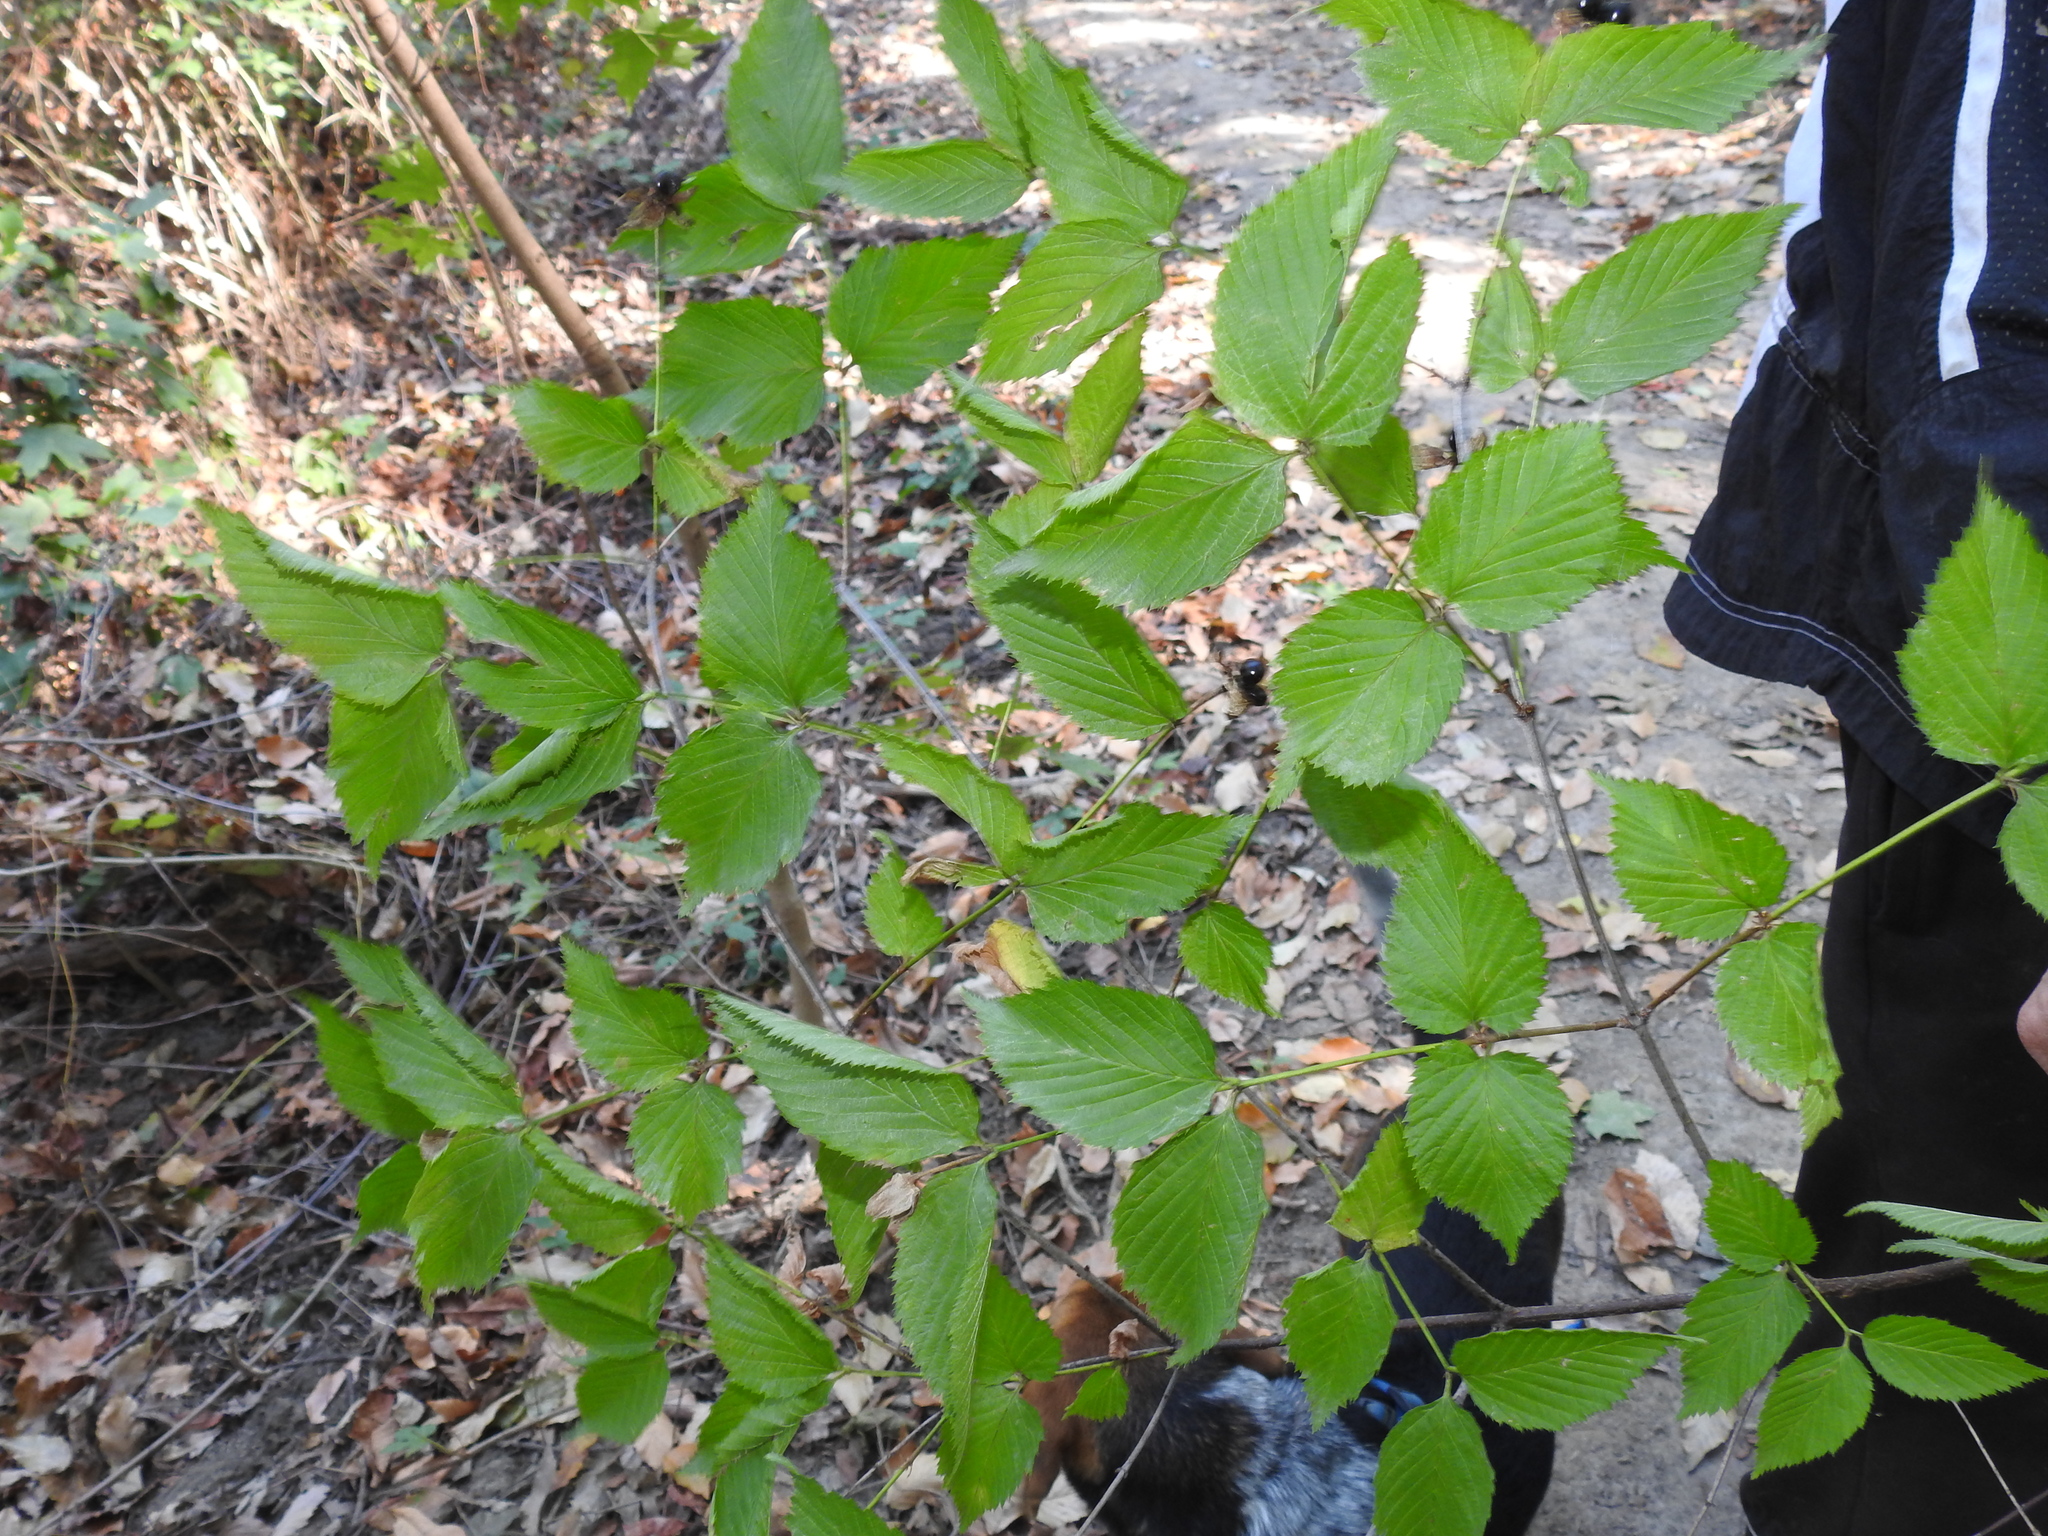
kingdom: Plantae
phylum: Tracheophyta
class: Magnoliopsida
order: Rosales
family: Rosaceae
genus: Rhodotypos
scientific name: Rhodotypos scandens
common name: Jetbead
